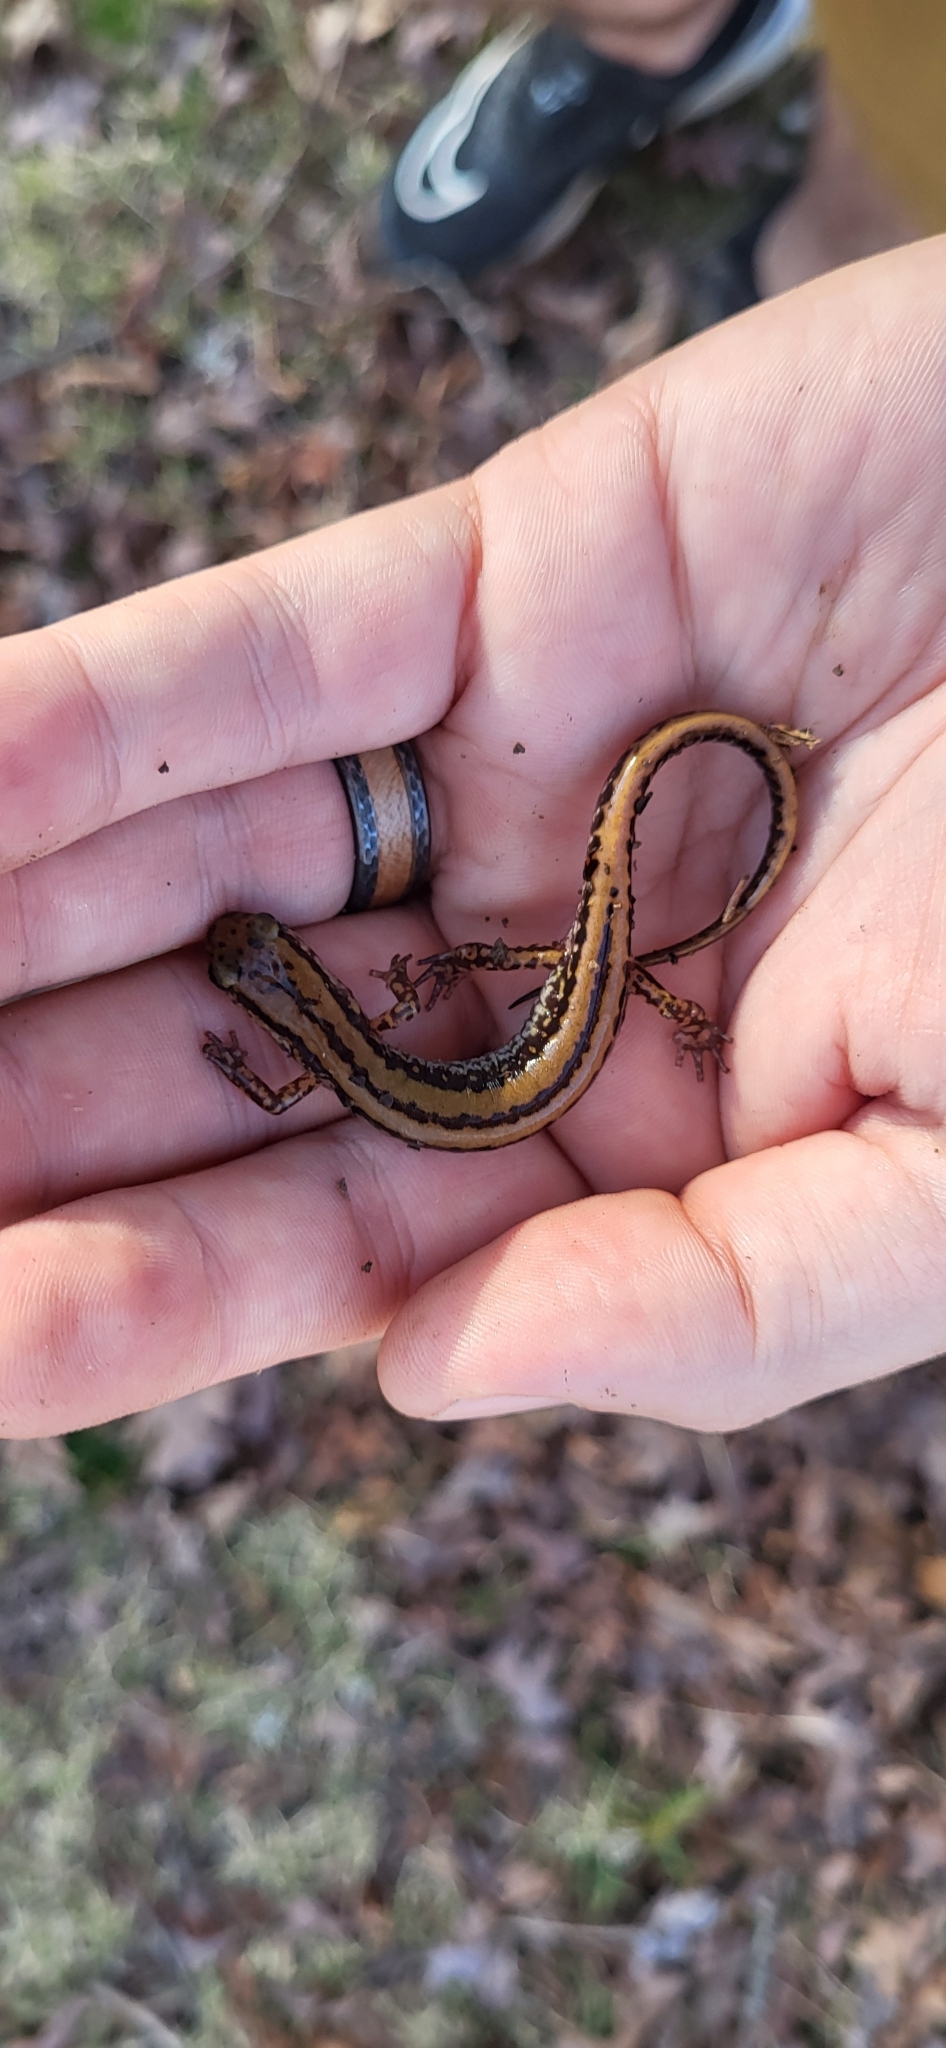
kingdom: Animalia
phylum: Chordata
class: Amphibia
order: Caudata
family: Plethodontidae
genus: Eurycea
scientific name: Eurycea guttolineata
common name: Three-lined salamander
